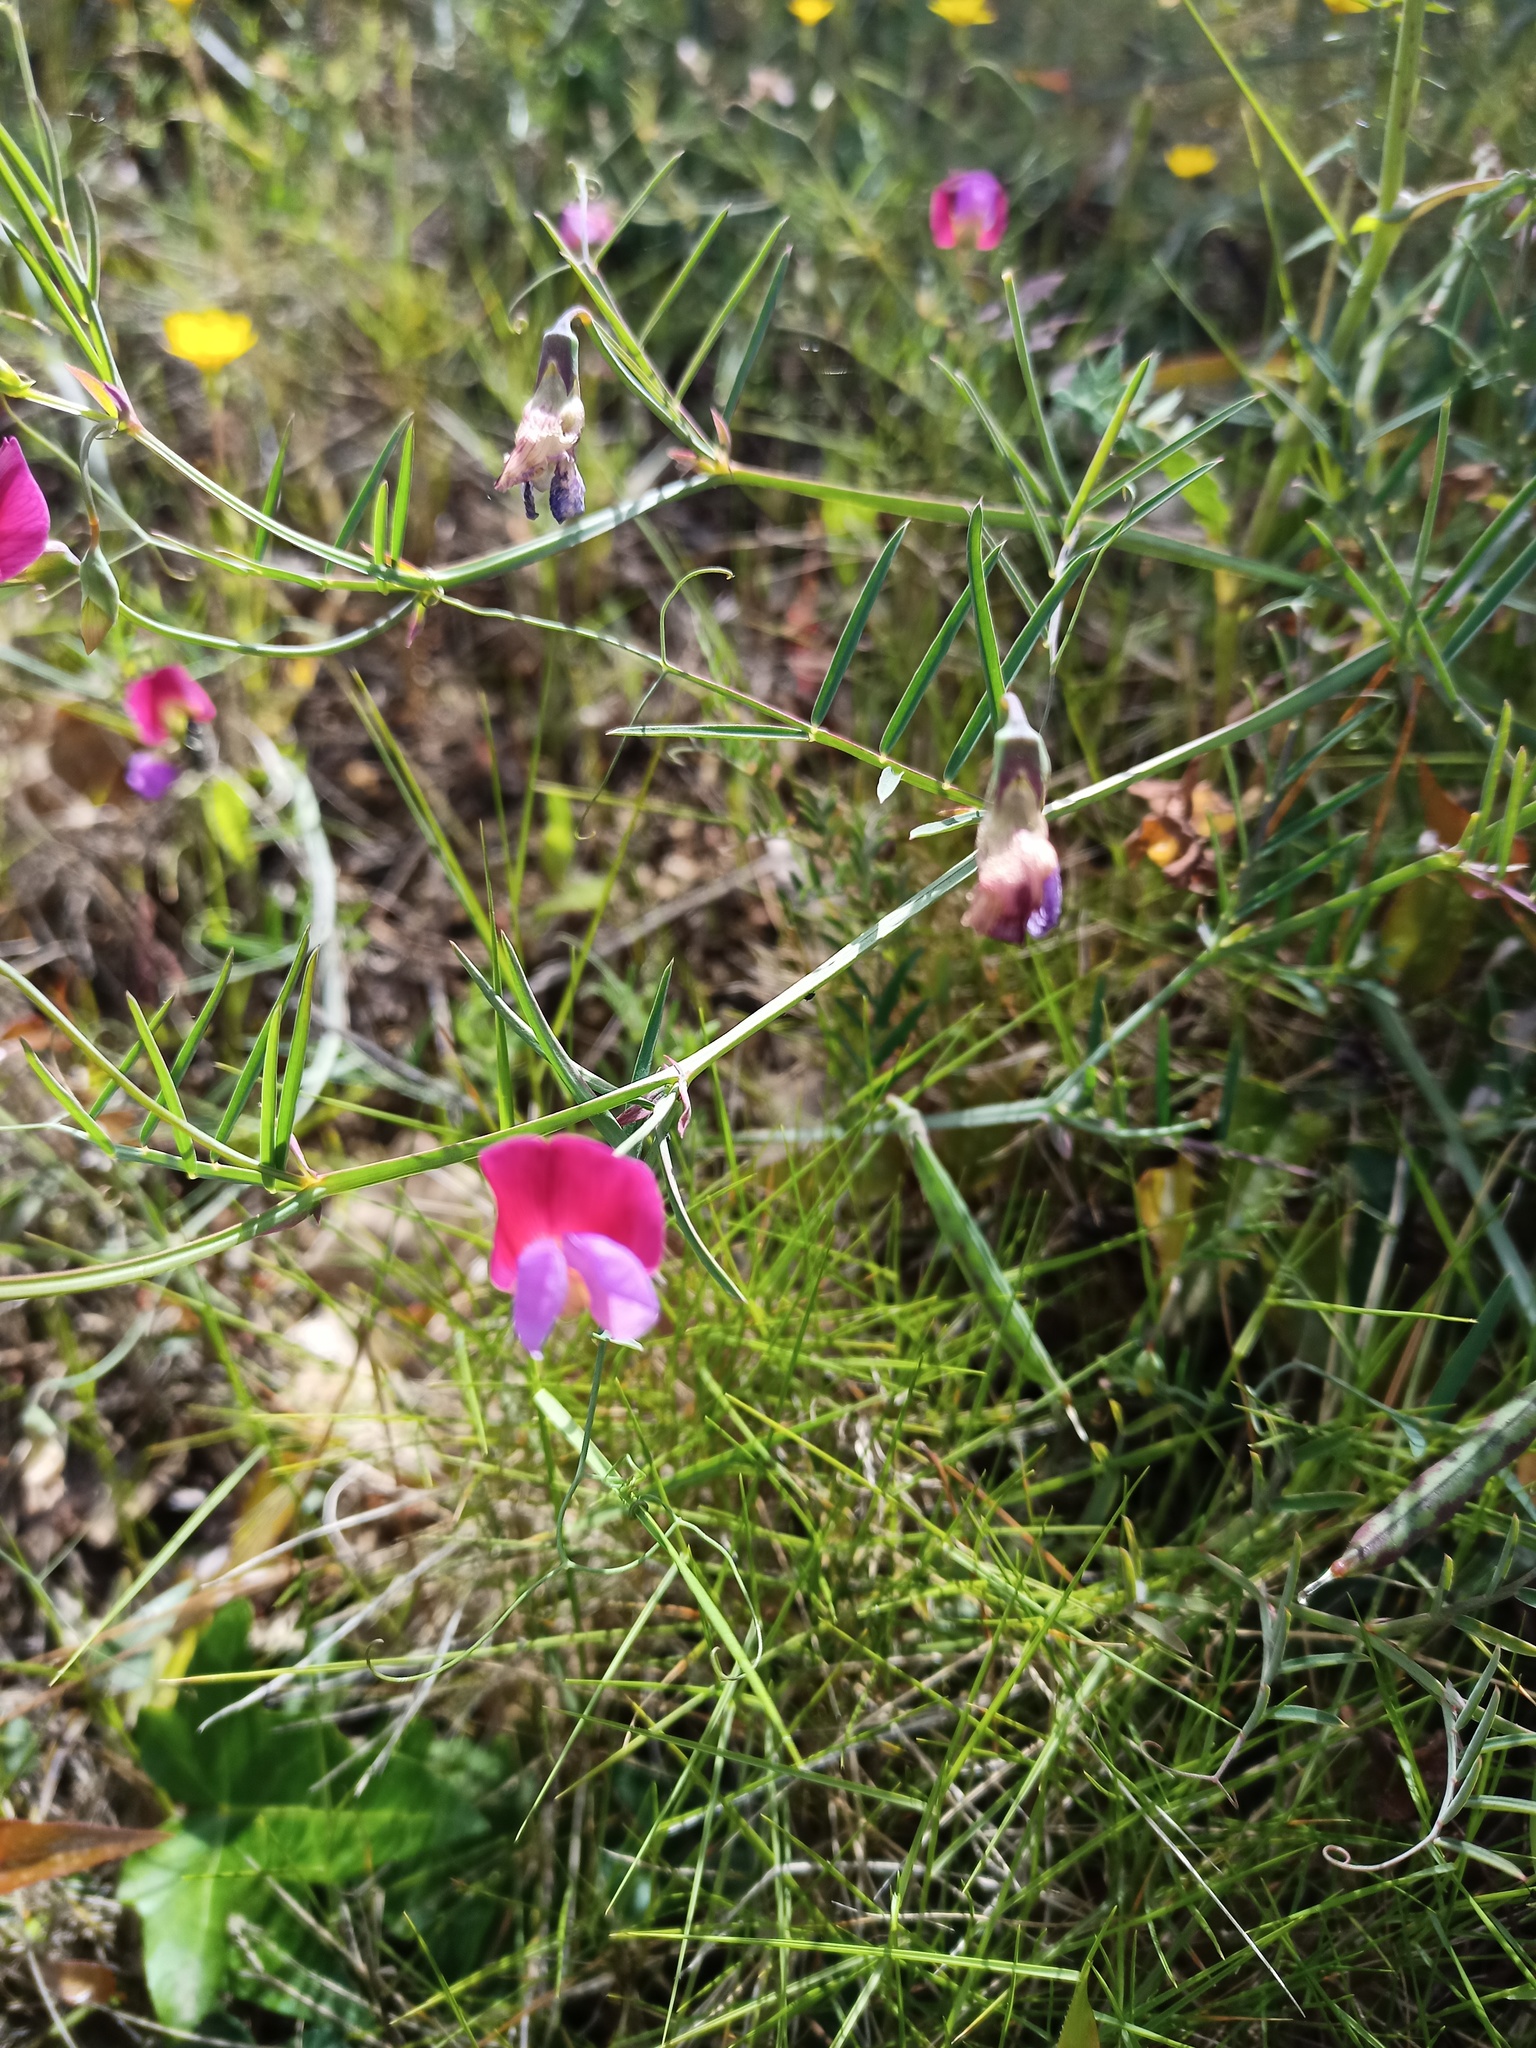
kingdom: Plantae
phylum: Tracheophyta
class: Magnoliopsida
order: Fabales
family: Fabaceae
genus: Lathyrus
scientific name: Lathyrus clymenum
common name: Spanish vetchling
